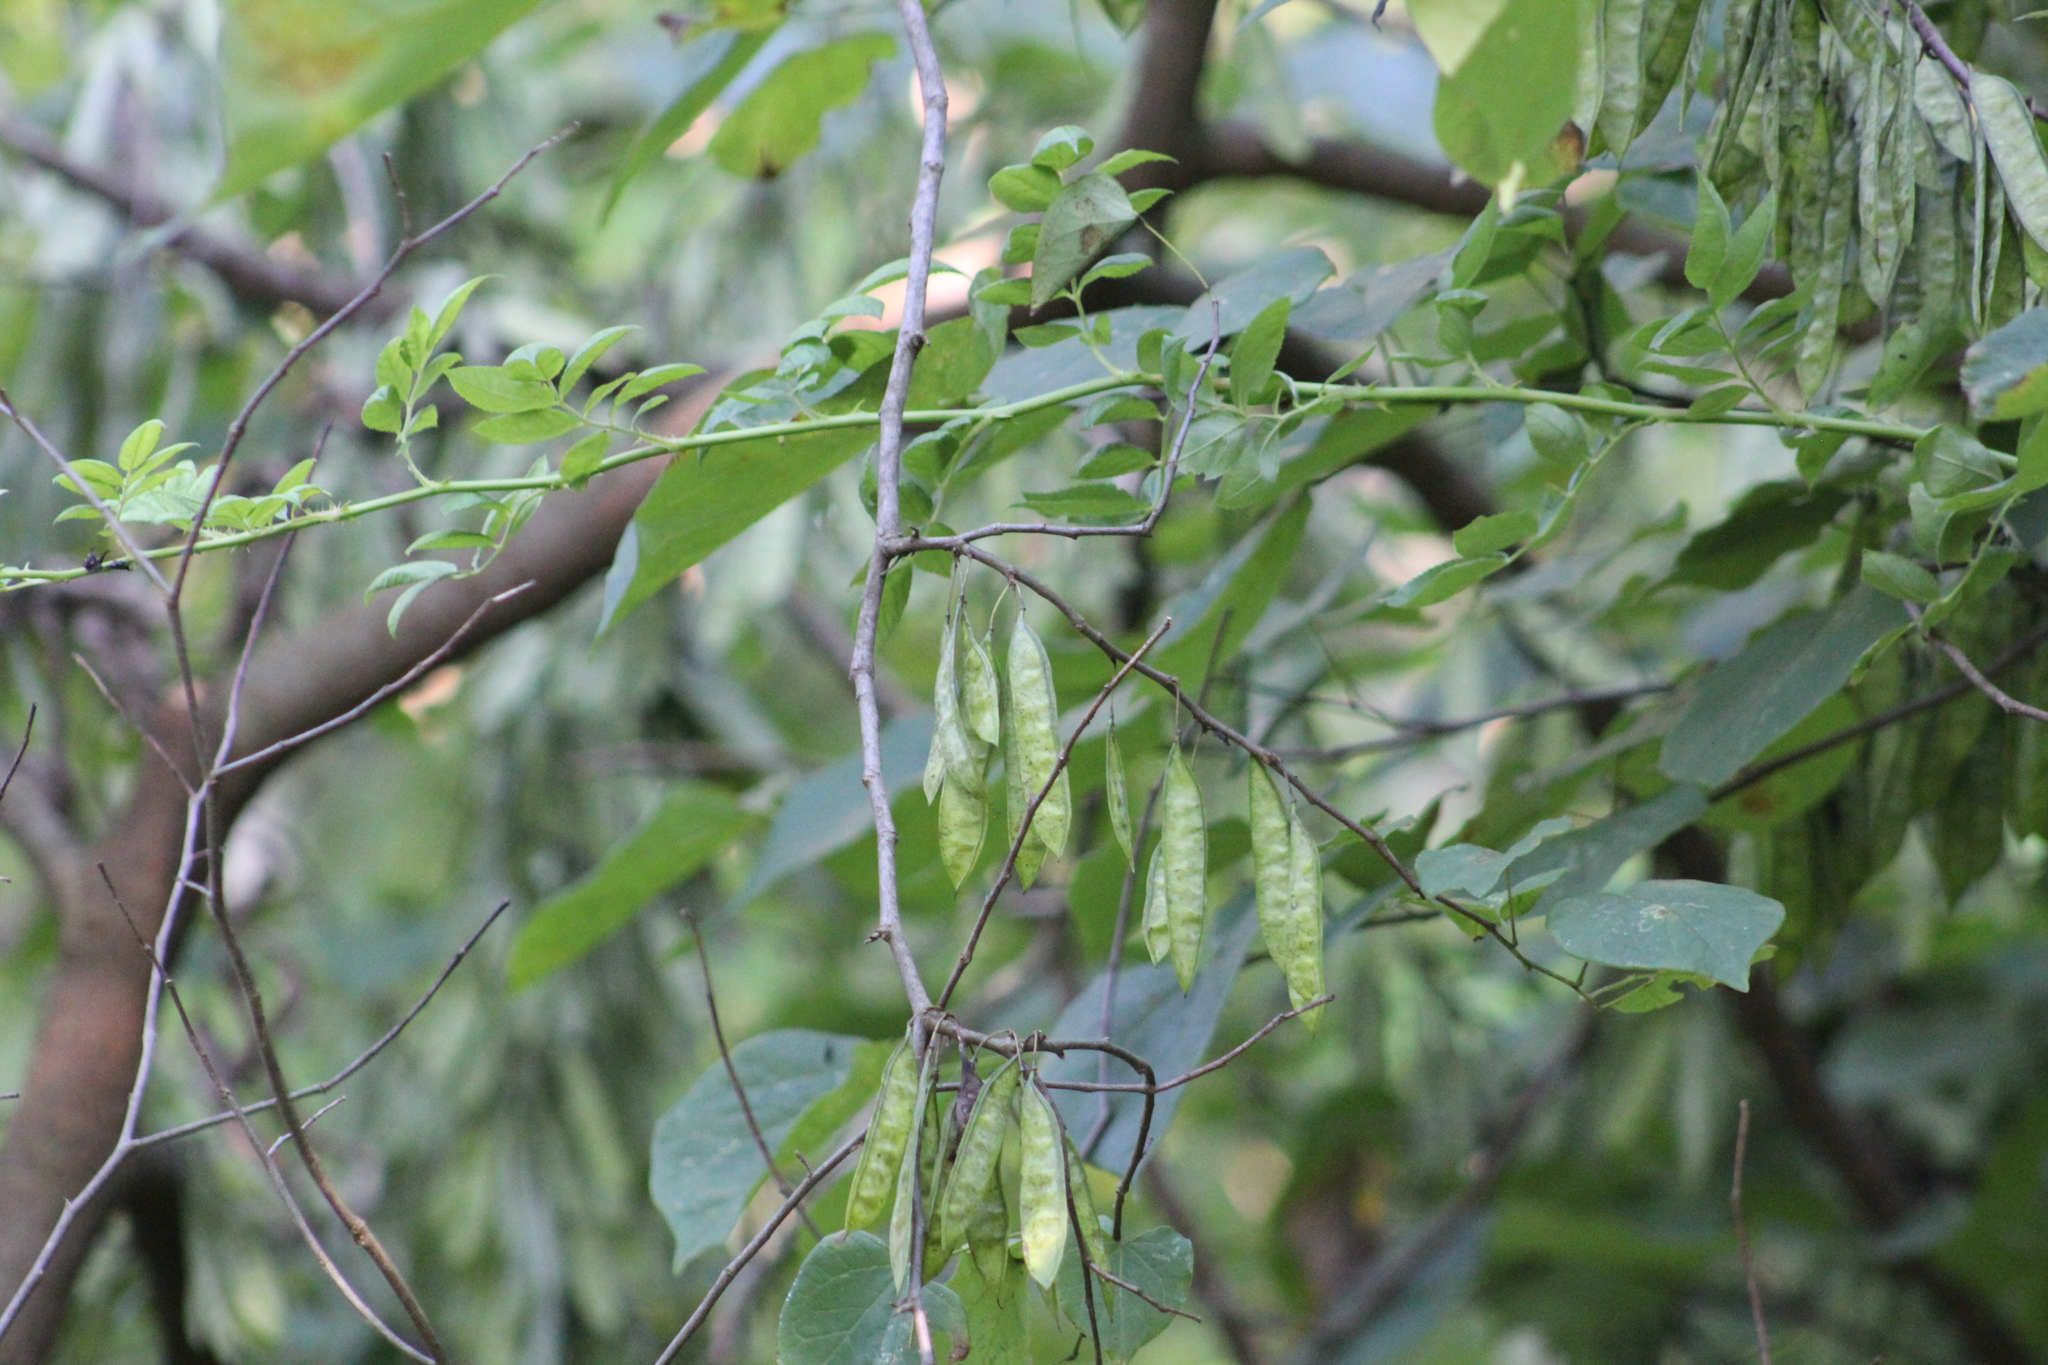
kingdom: Plantae
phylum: Tracheophyta
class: Magnoliopsida
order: Fabales
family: Fabaceae
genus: Cercis
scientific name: Cercis canadensis
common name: Eastern redbud
